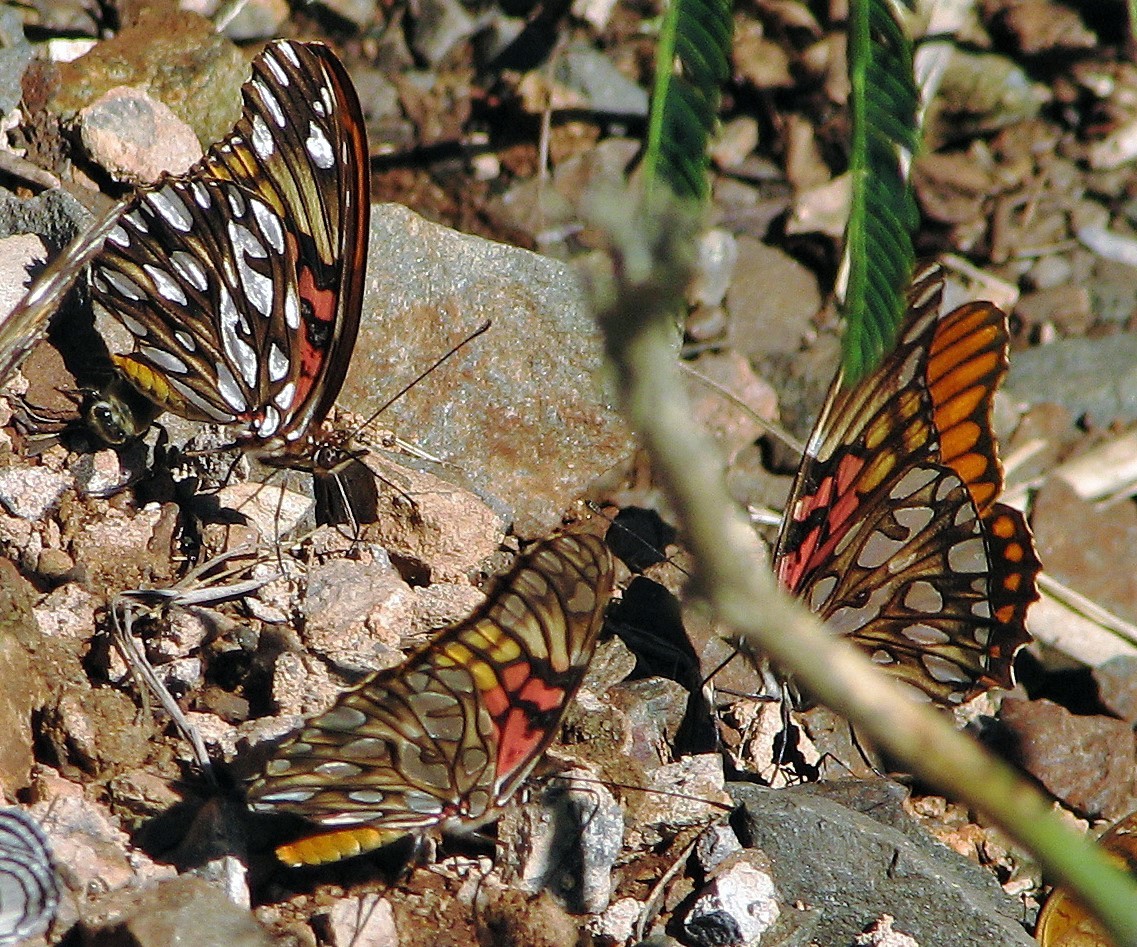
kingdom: Animalia
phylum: Arthropoda
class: Insecta
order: Lepidoptera
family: Nymphalidae
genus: Dione
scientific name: Dione moneta
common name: Mexican silverspot
